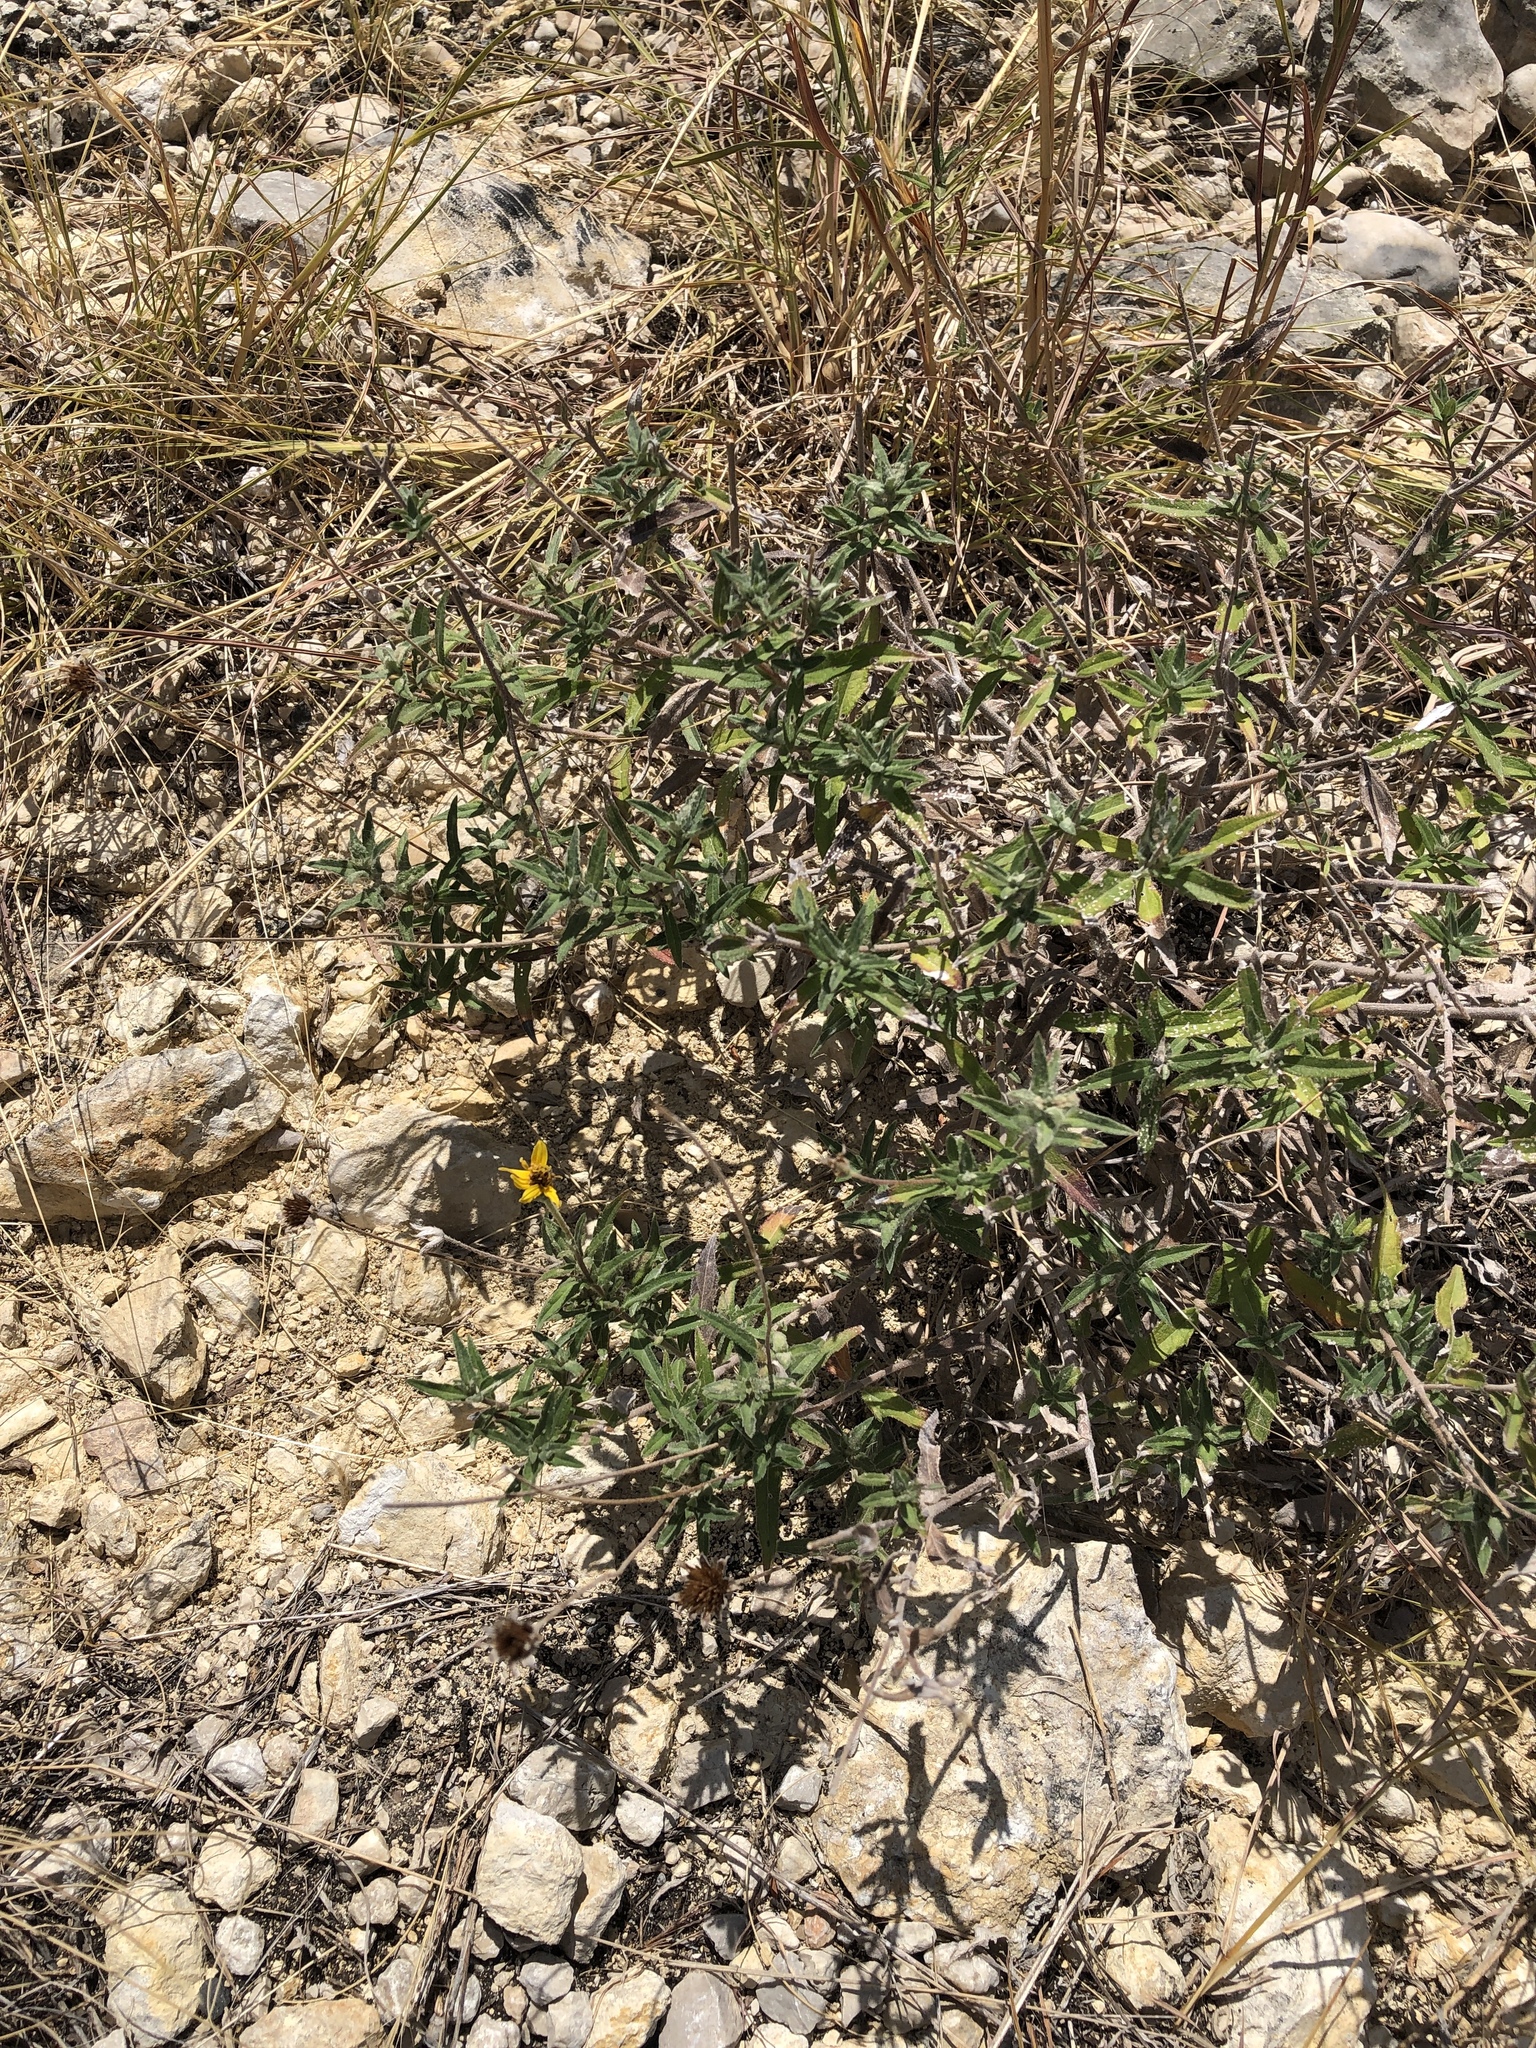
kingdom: Plantae
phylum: Tracheophyta
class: Magnoliopsida
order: Asterales
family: Asteraceae
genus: Wedelia
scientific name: Wedelia acapulcensis
